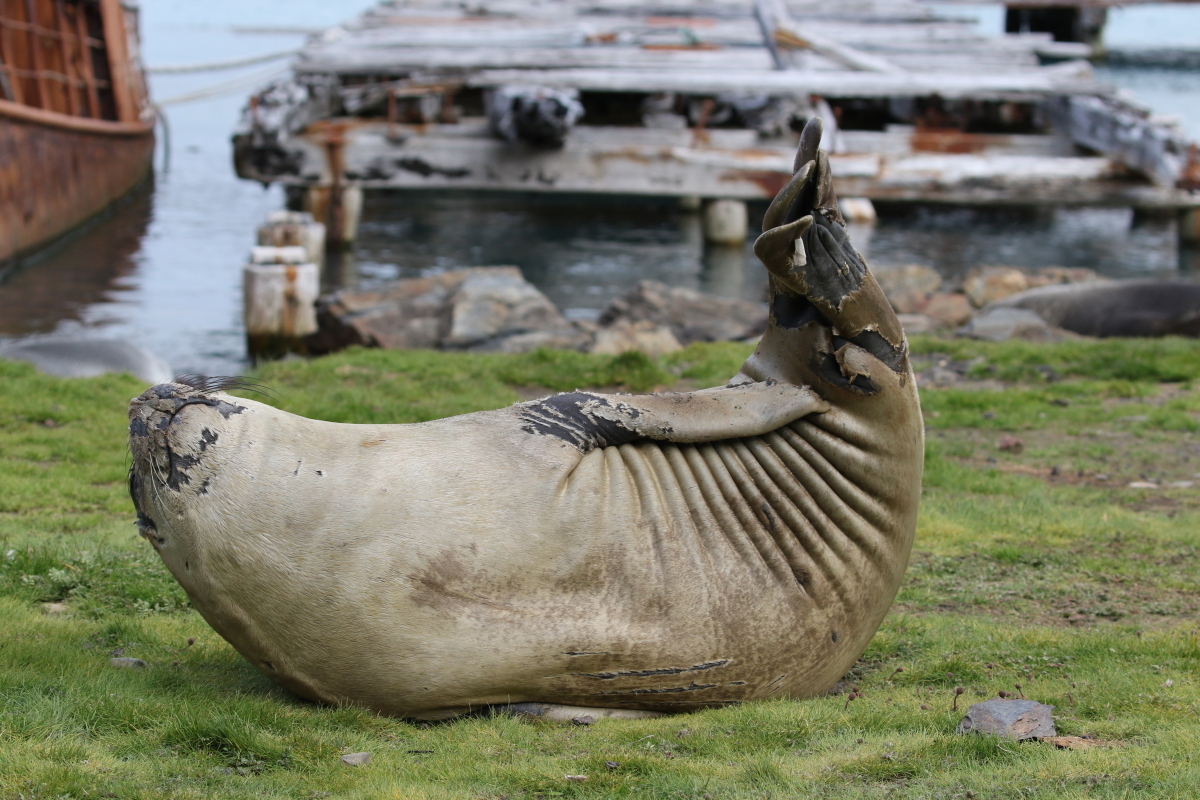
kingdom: Animalia
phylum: Chordata
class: Mammalia
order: Carnivora
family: Phocidae
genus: Mirounga
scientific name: Mirounga leonina
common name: Southern elephant seal
